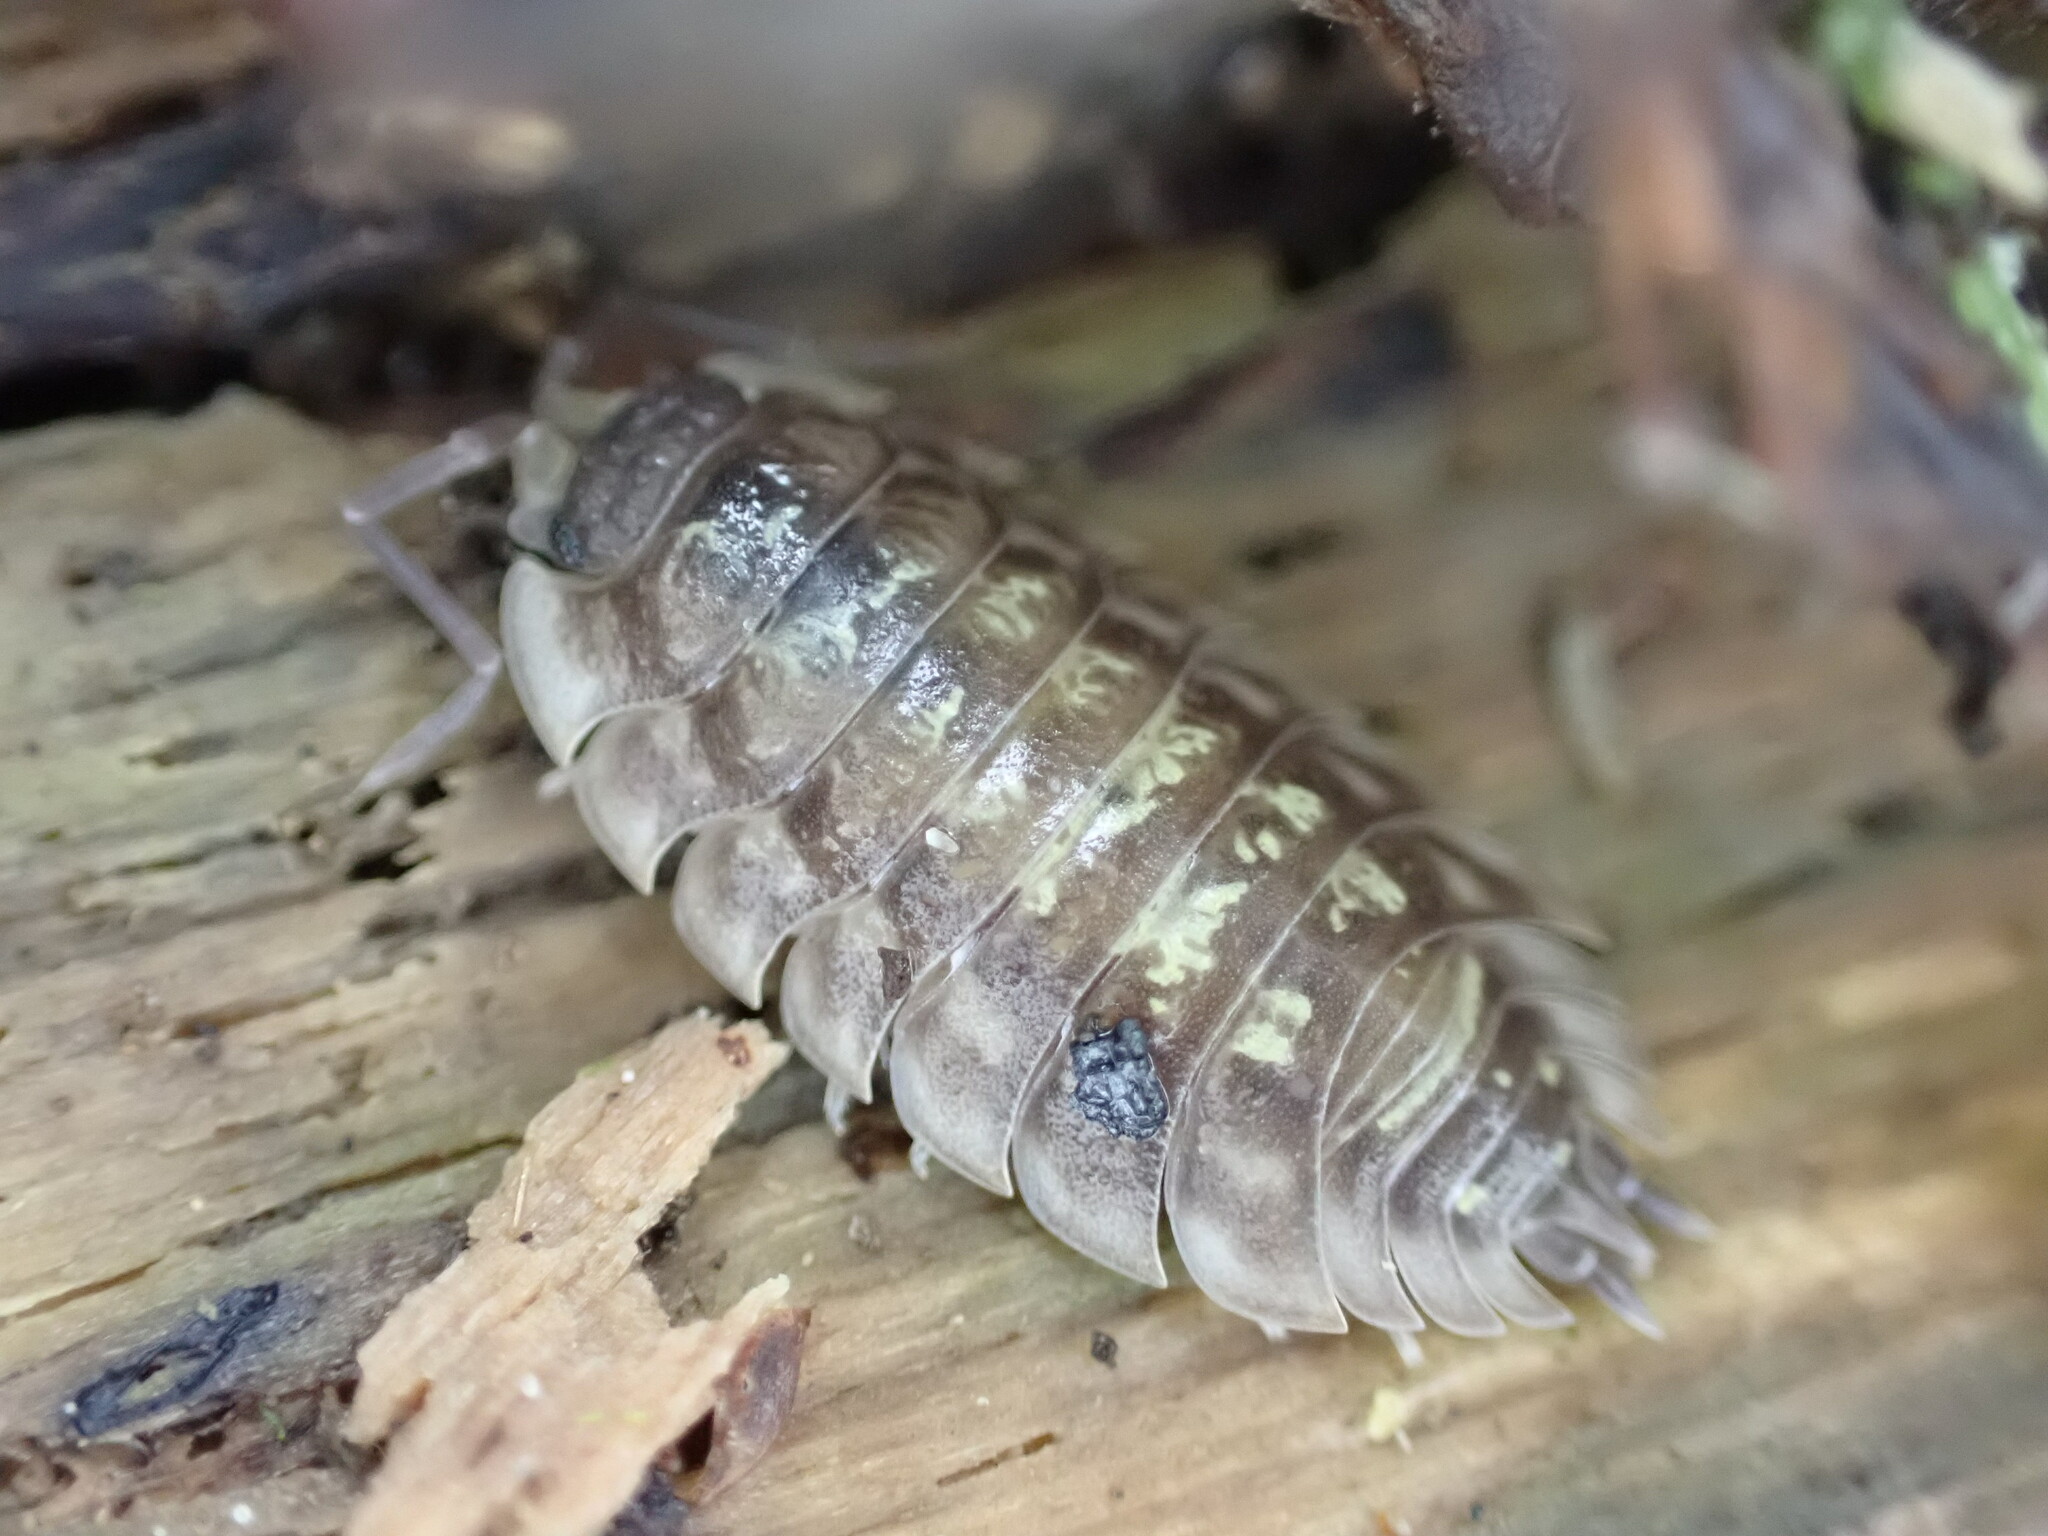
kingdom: Animalia
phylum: Arthropoda
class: Malacostraca
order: Isopoda
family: Oniscidae
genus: Oniscus
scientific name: Oniscus asellus
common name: Common shiny woodlouse
